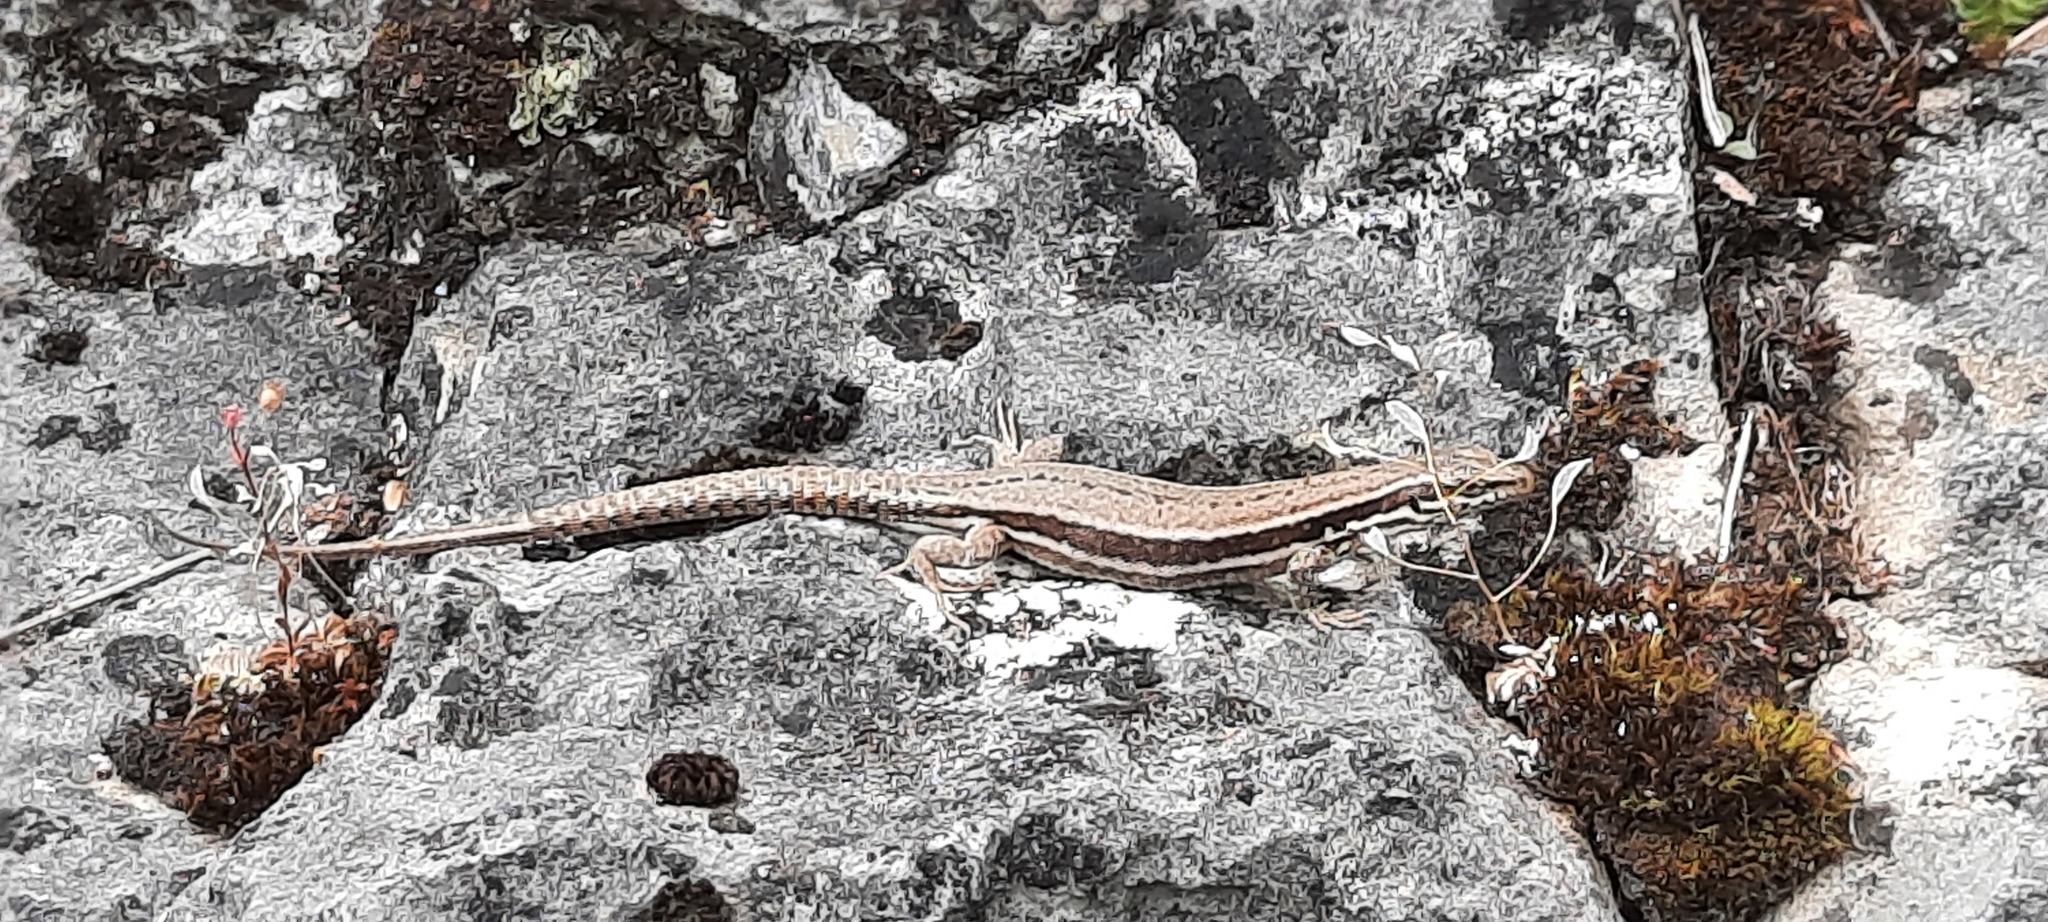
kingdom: Animalia
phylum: Chordata
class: Squamata
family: Lacertidae
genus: Podarcis
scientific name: Podarcis muralis
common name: Common wall lizard
